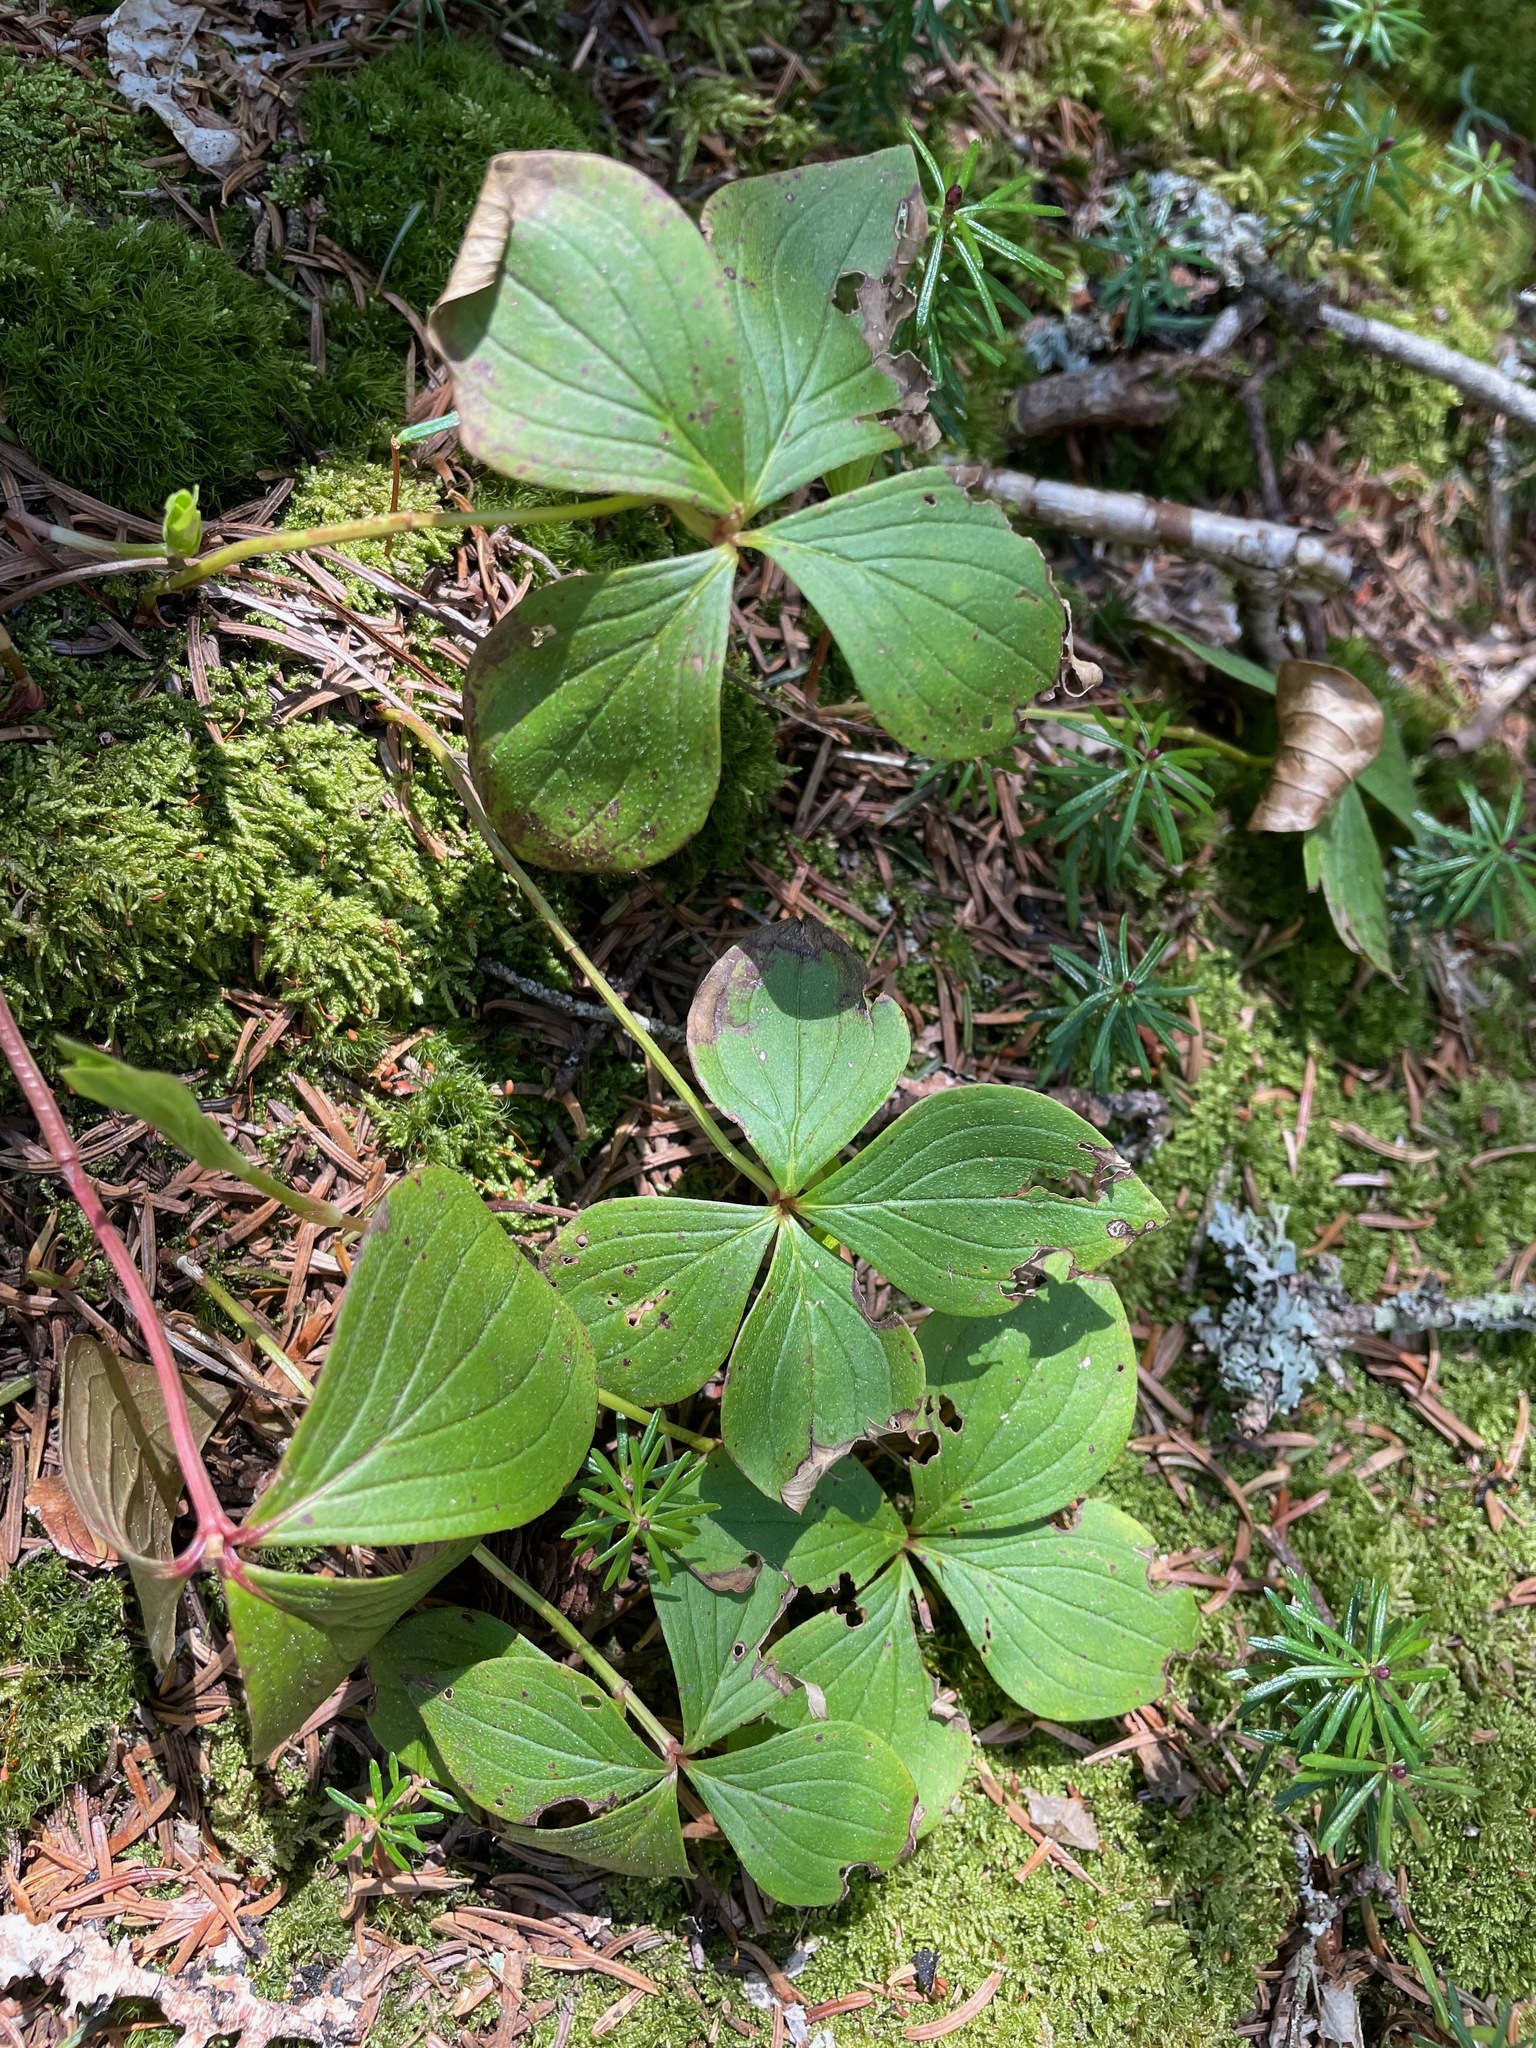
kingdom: Plantae
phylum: Tracheophyta
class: Magnoliopsida
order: Cornales
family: Cornaceae
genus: Cornus
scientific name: Cornus canadensis
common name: Creeping dogwood
